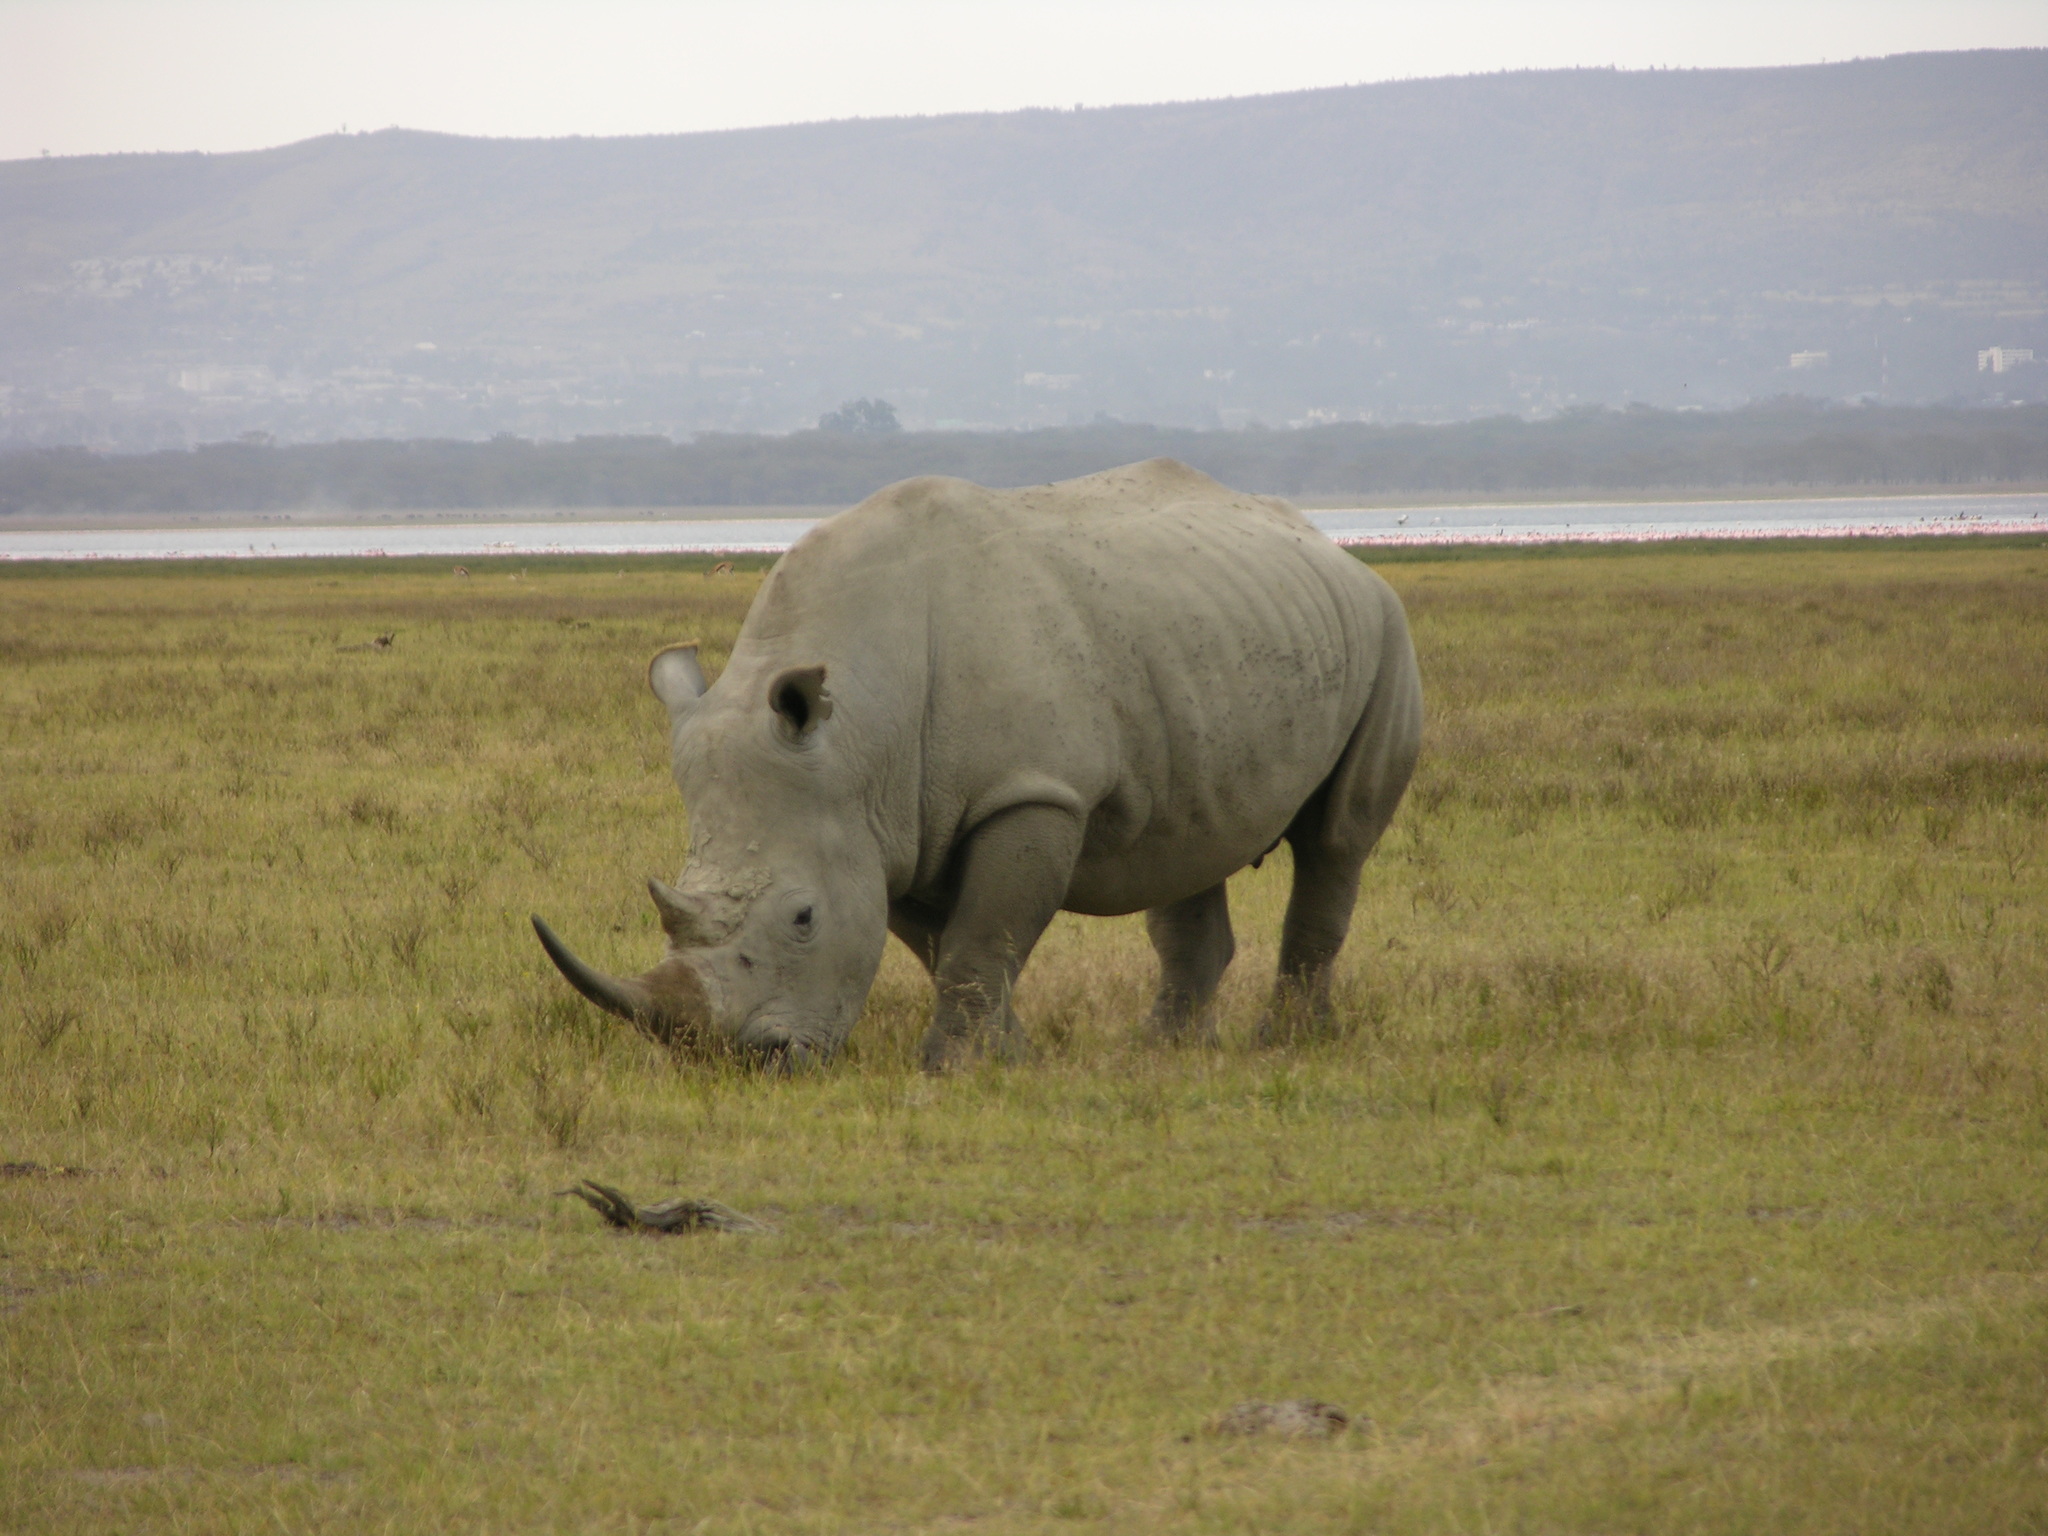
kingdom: Animalia
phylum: Chordata
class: Mammalia
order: Perissodactyla
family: Rhinocerotidae
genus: Ceratotherium
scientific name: Ceratotherium simum
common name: White rhinoceros
